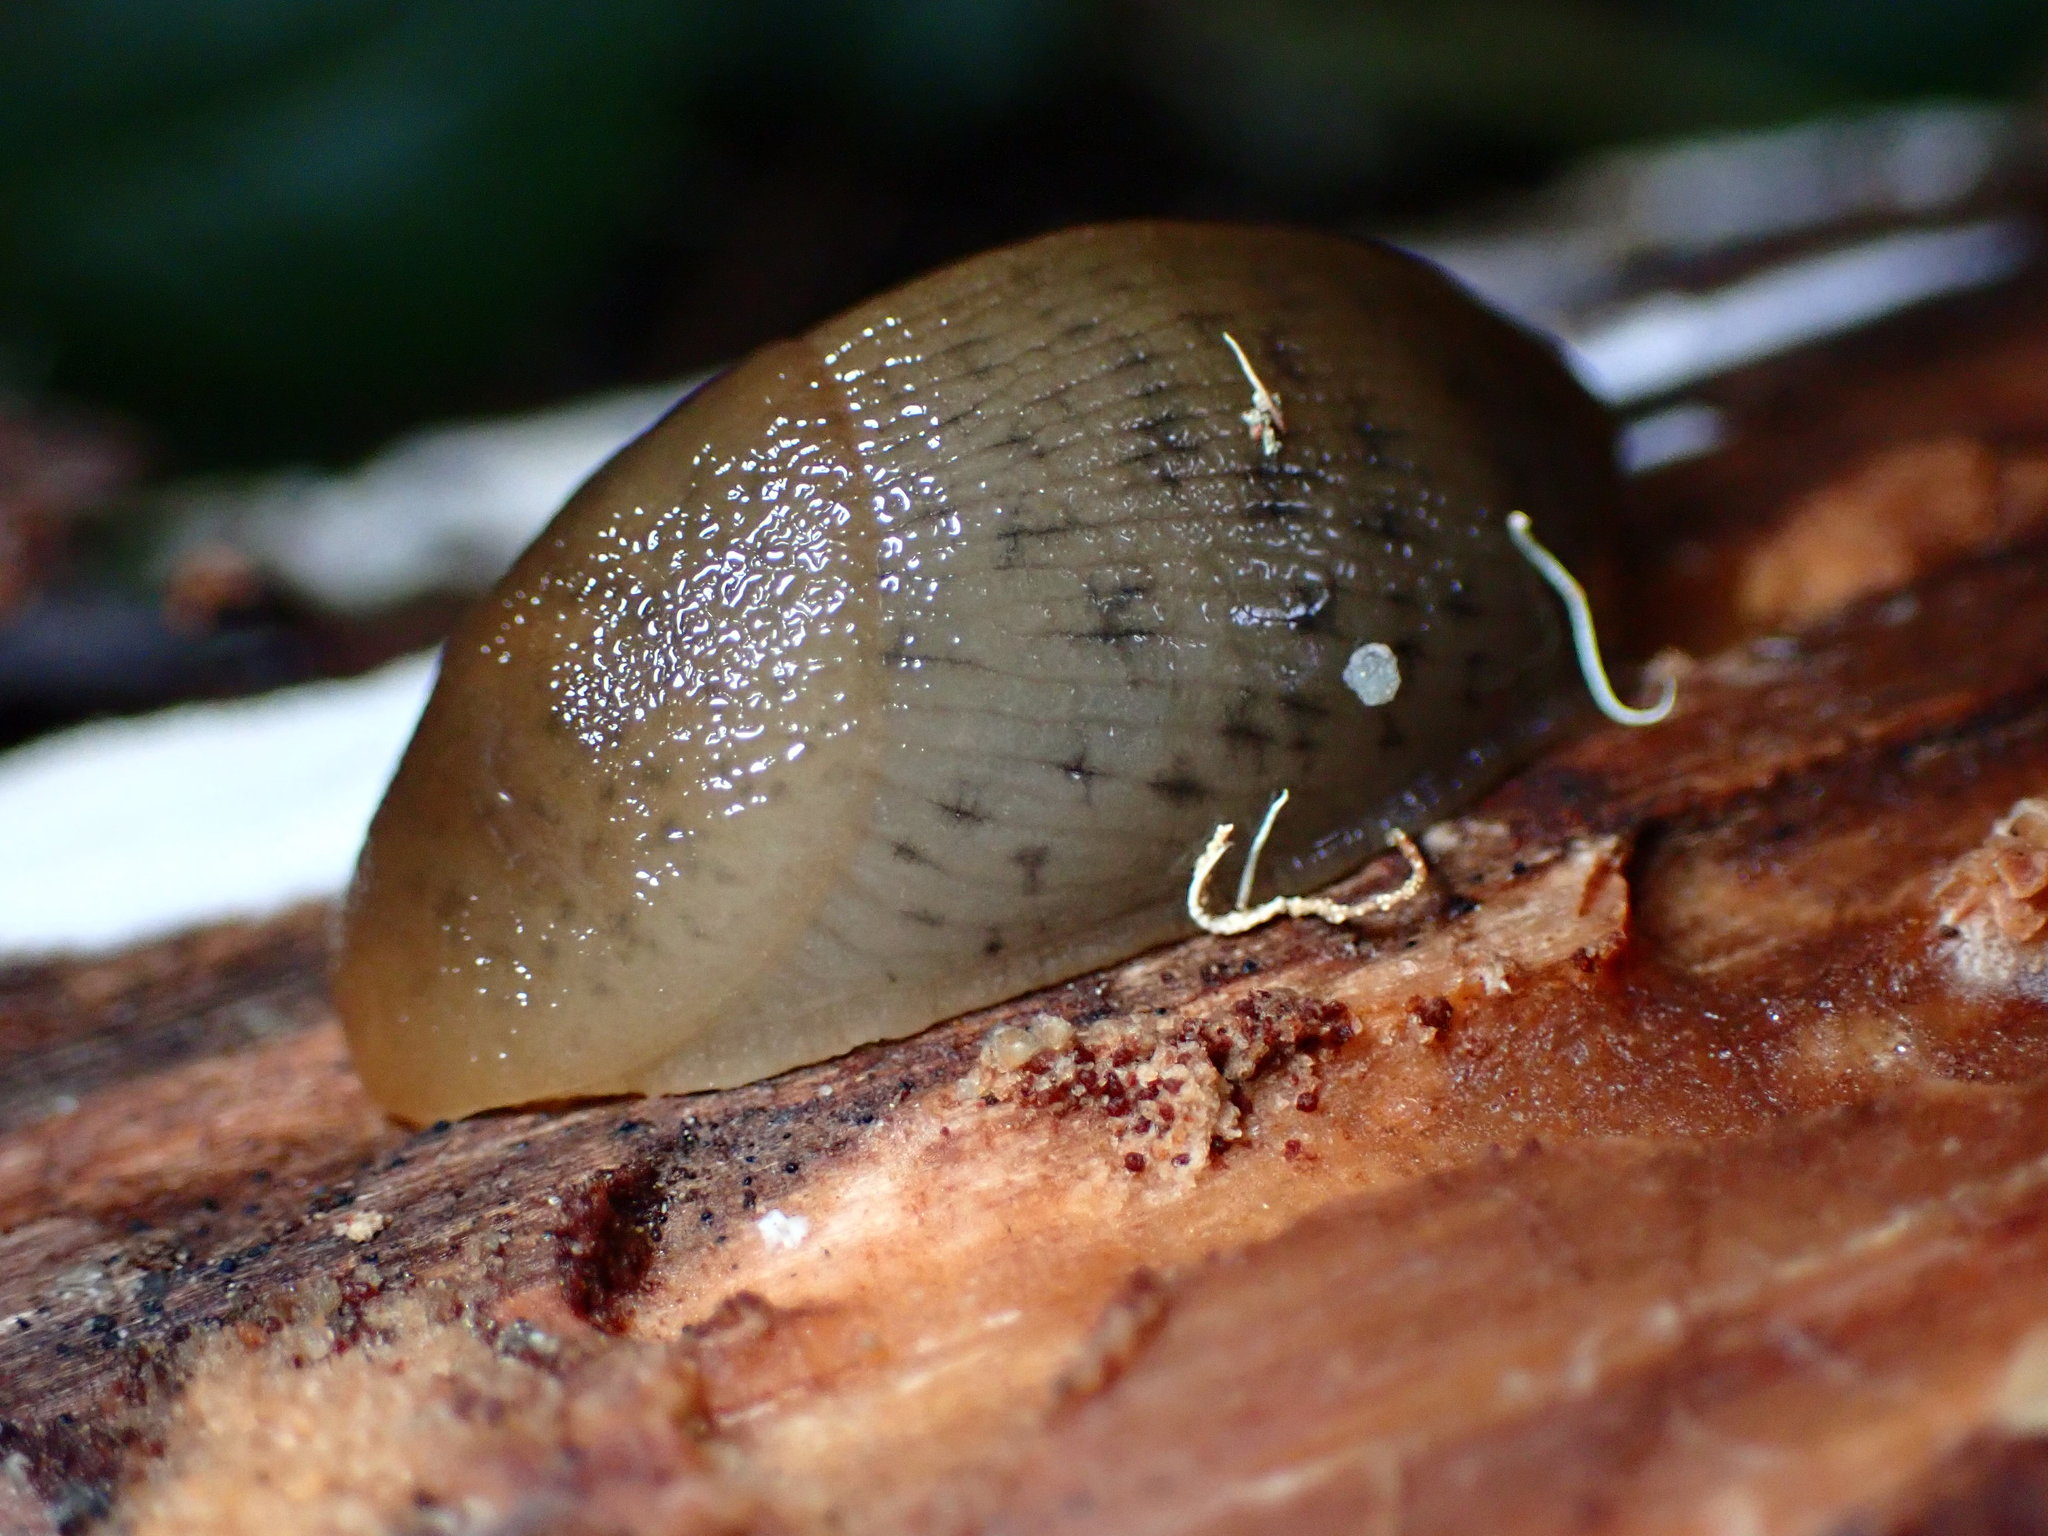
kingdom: Animalia
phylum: Mollusca
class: Gastropoda
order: Stylommatophora
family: Ariolimacidae
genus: Ariolimax
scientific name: Ariolimax buttoni
